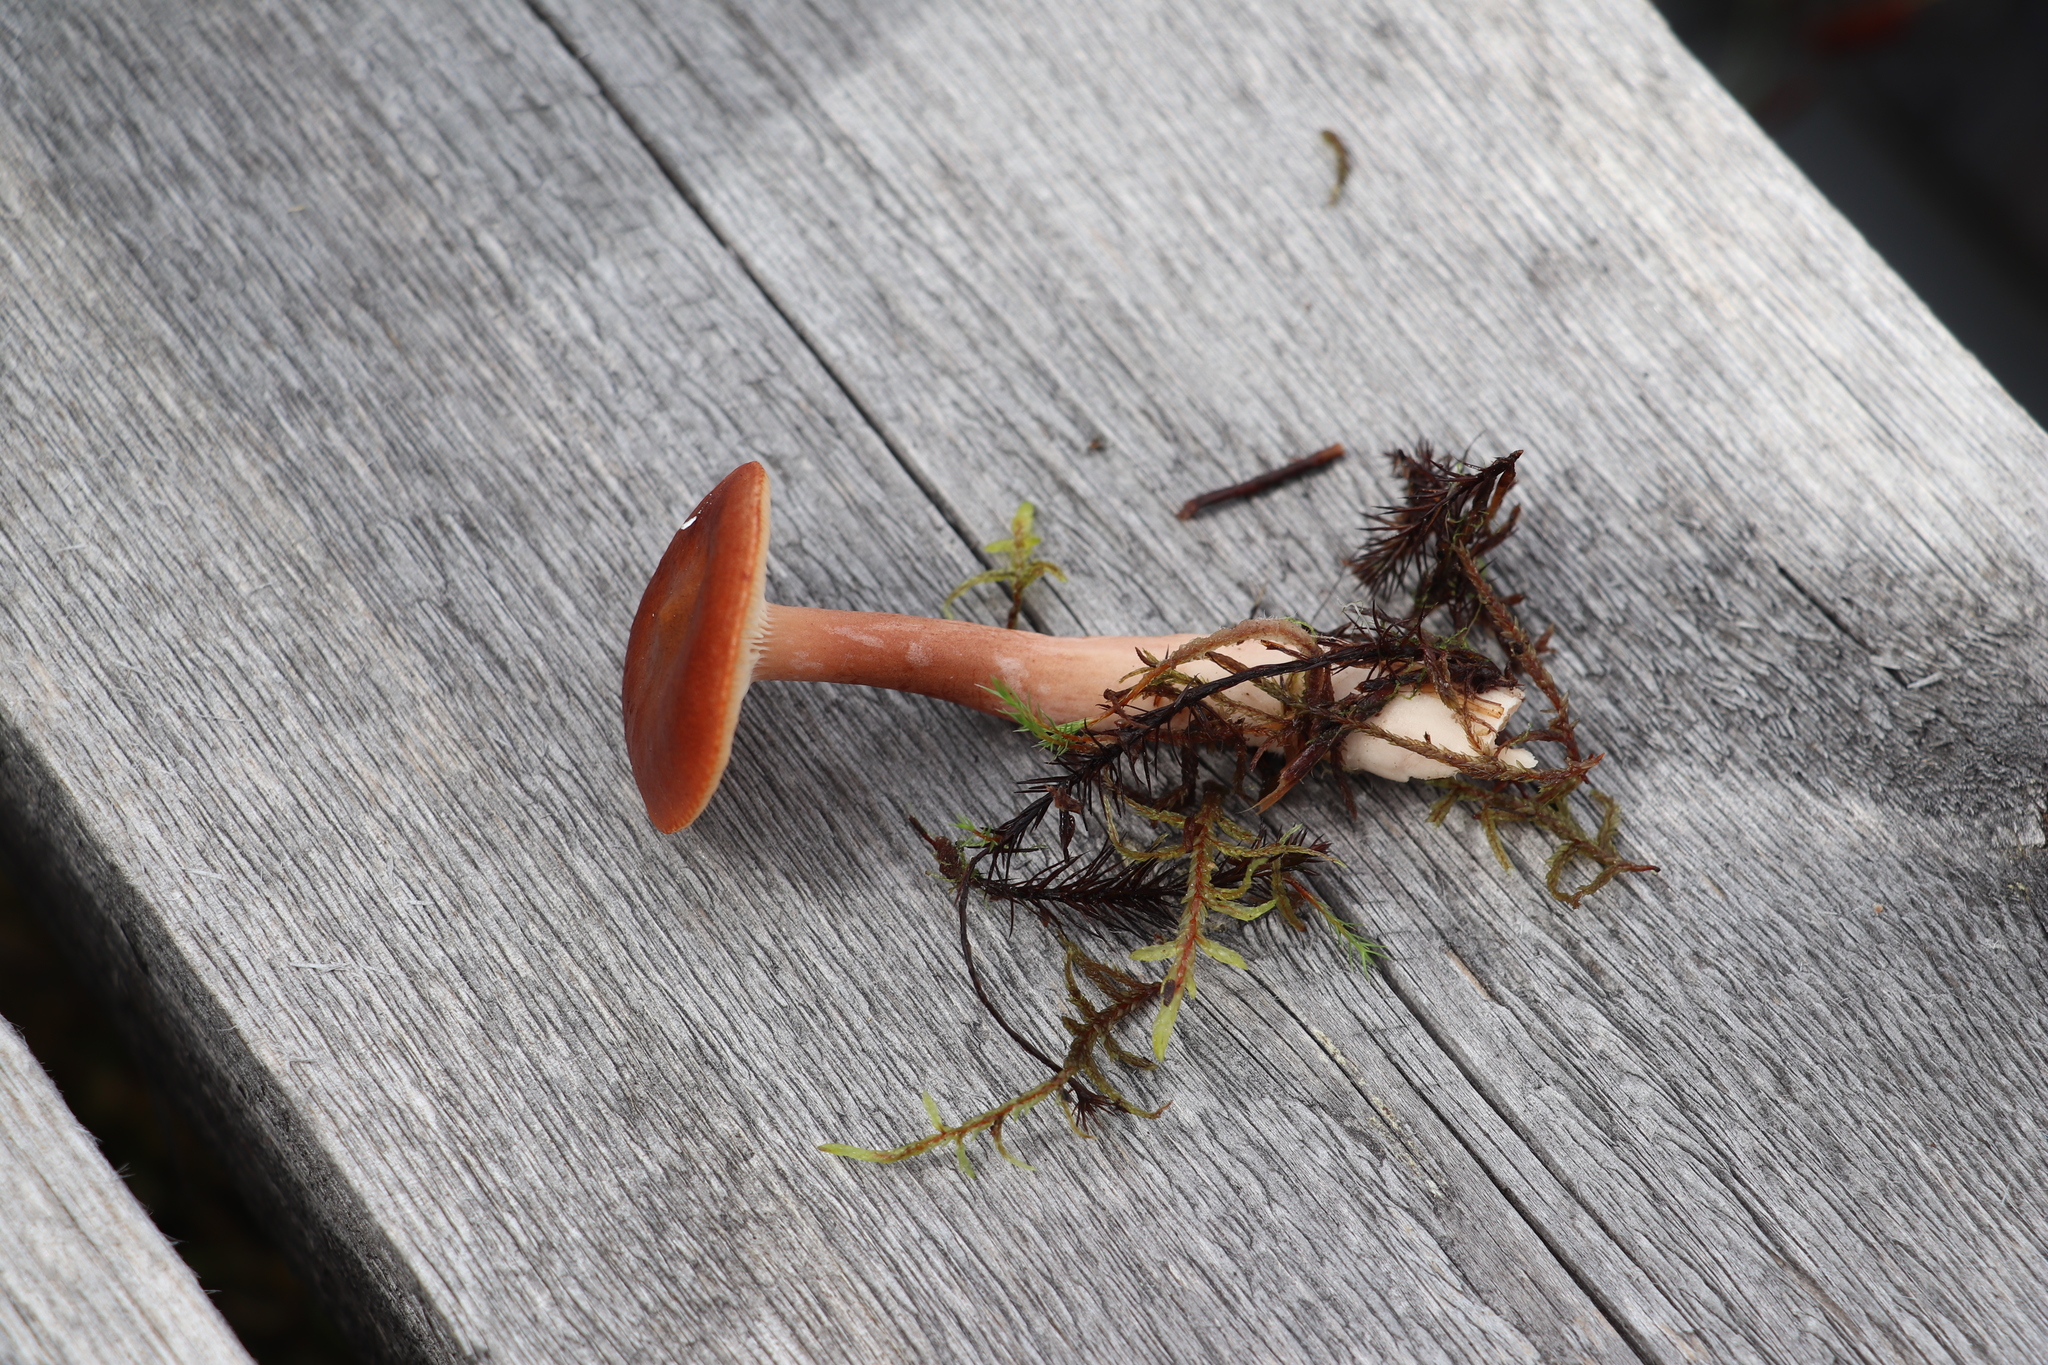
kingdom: Fungi
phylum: Basidiomycota
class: Agaricomycetes
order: Russulales
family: Russulaceae
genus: Lactarius
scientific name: Lactarius rufus
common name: Rufous milk-cap
